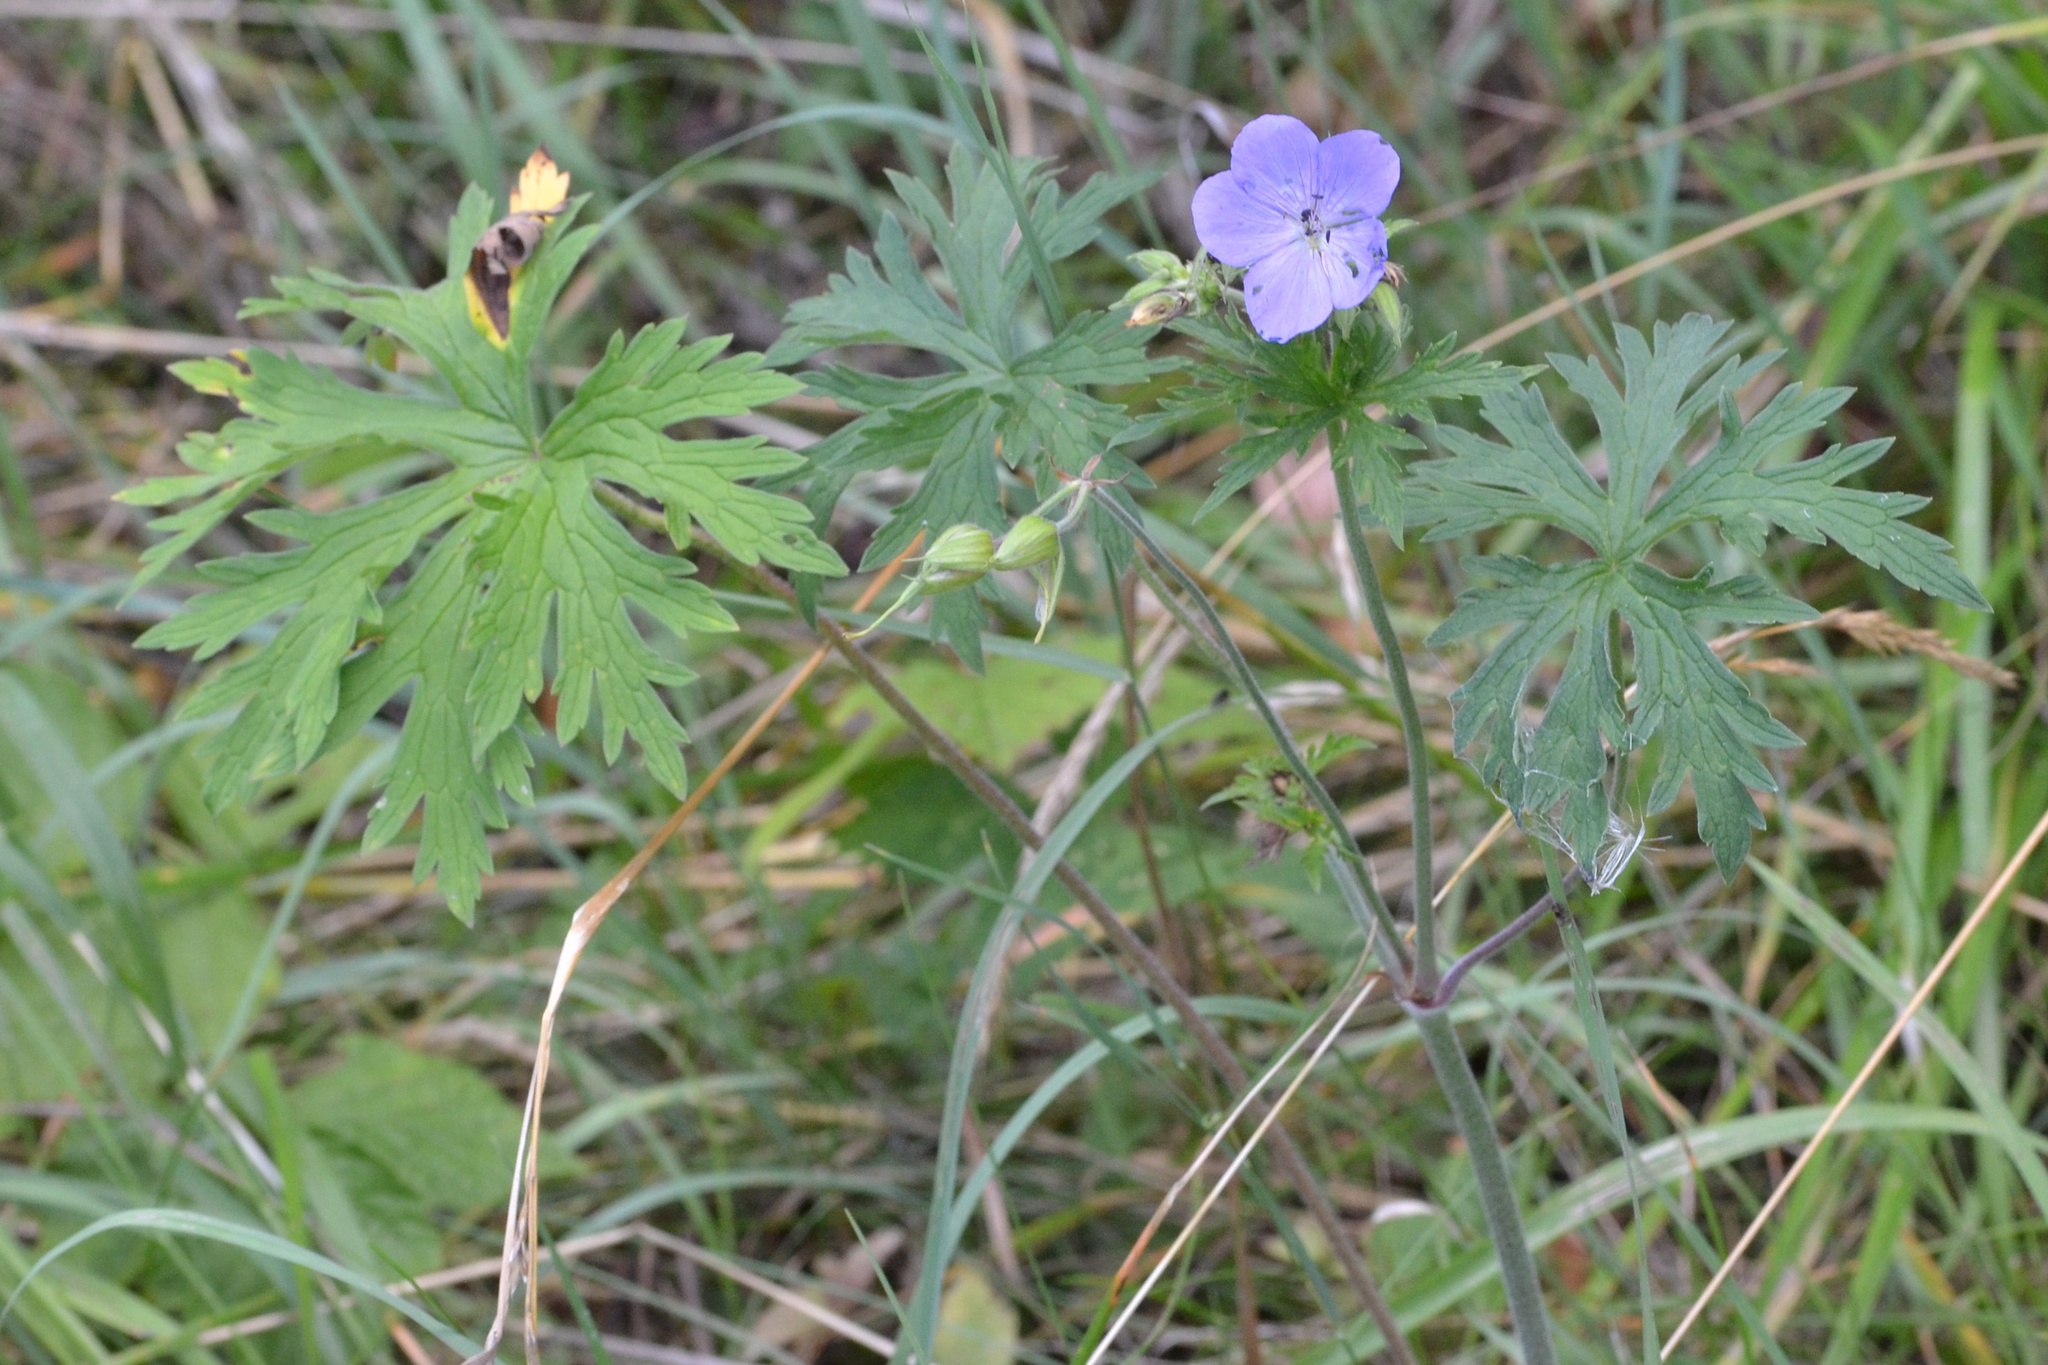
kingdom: Plantae
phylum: Tracheophyta
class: Magnoliopsida
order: Geraniales
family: Geraniaceae
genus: Geranium
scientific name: Geranium pratense
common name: Meadow crane's-bill
